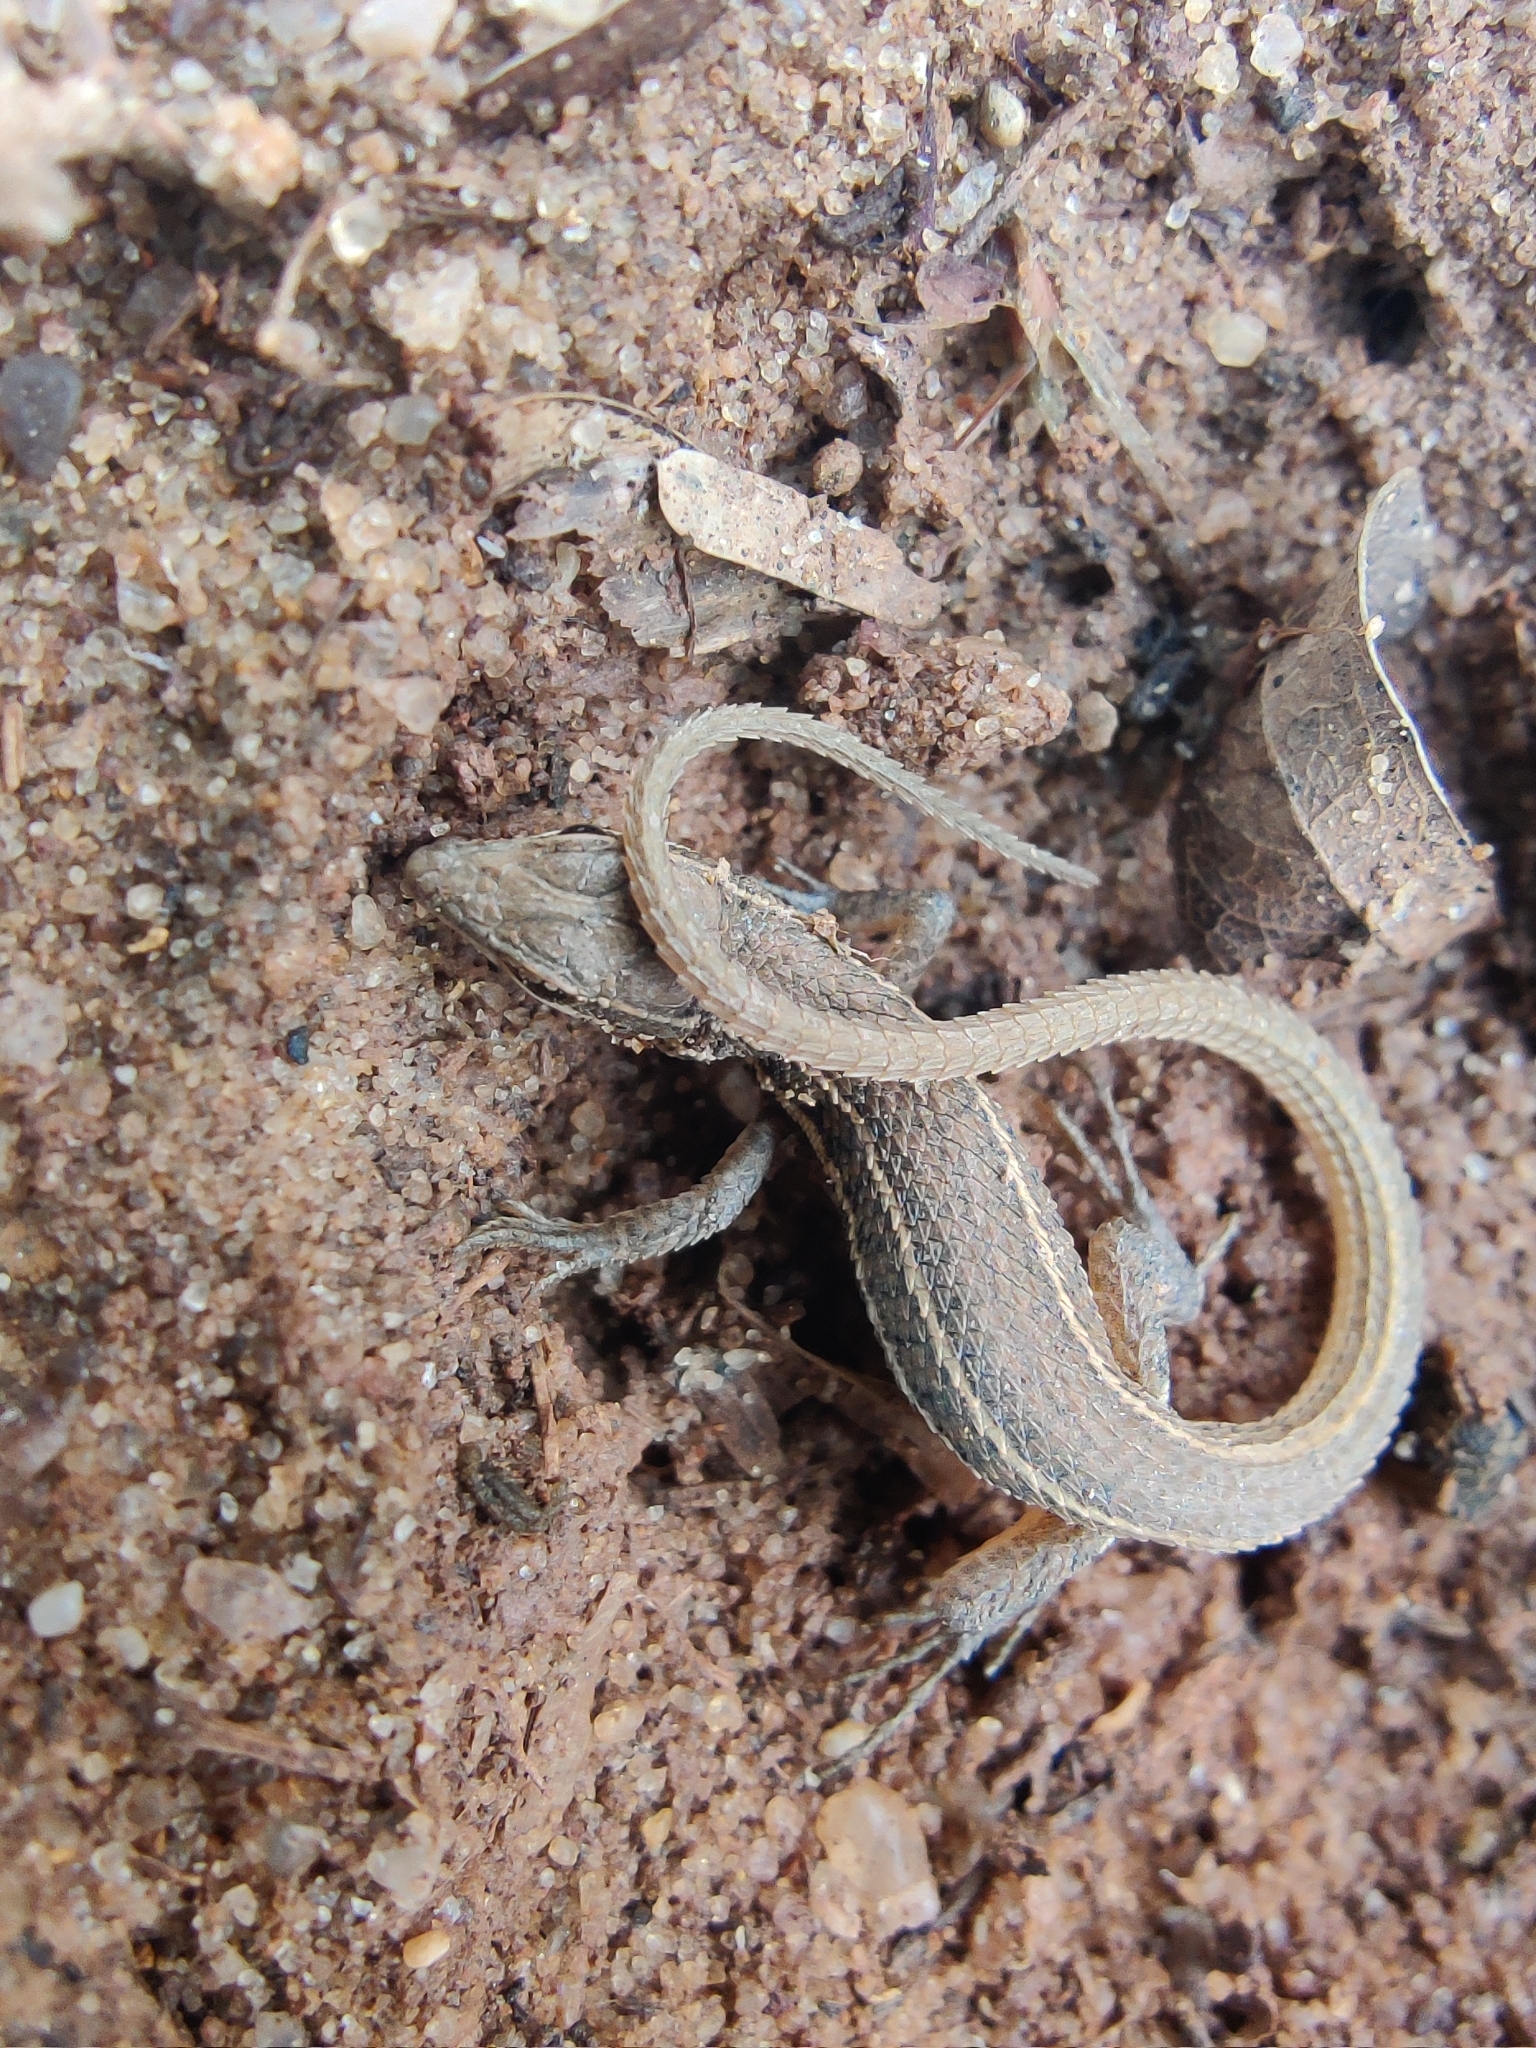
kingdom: Animalia
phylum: Chordata
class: Squamata
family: Lacertidae
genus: Ophisops
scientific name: Ophisops kutchensis
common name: Kutch small-scaled snake-eye
